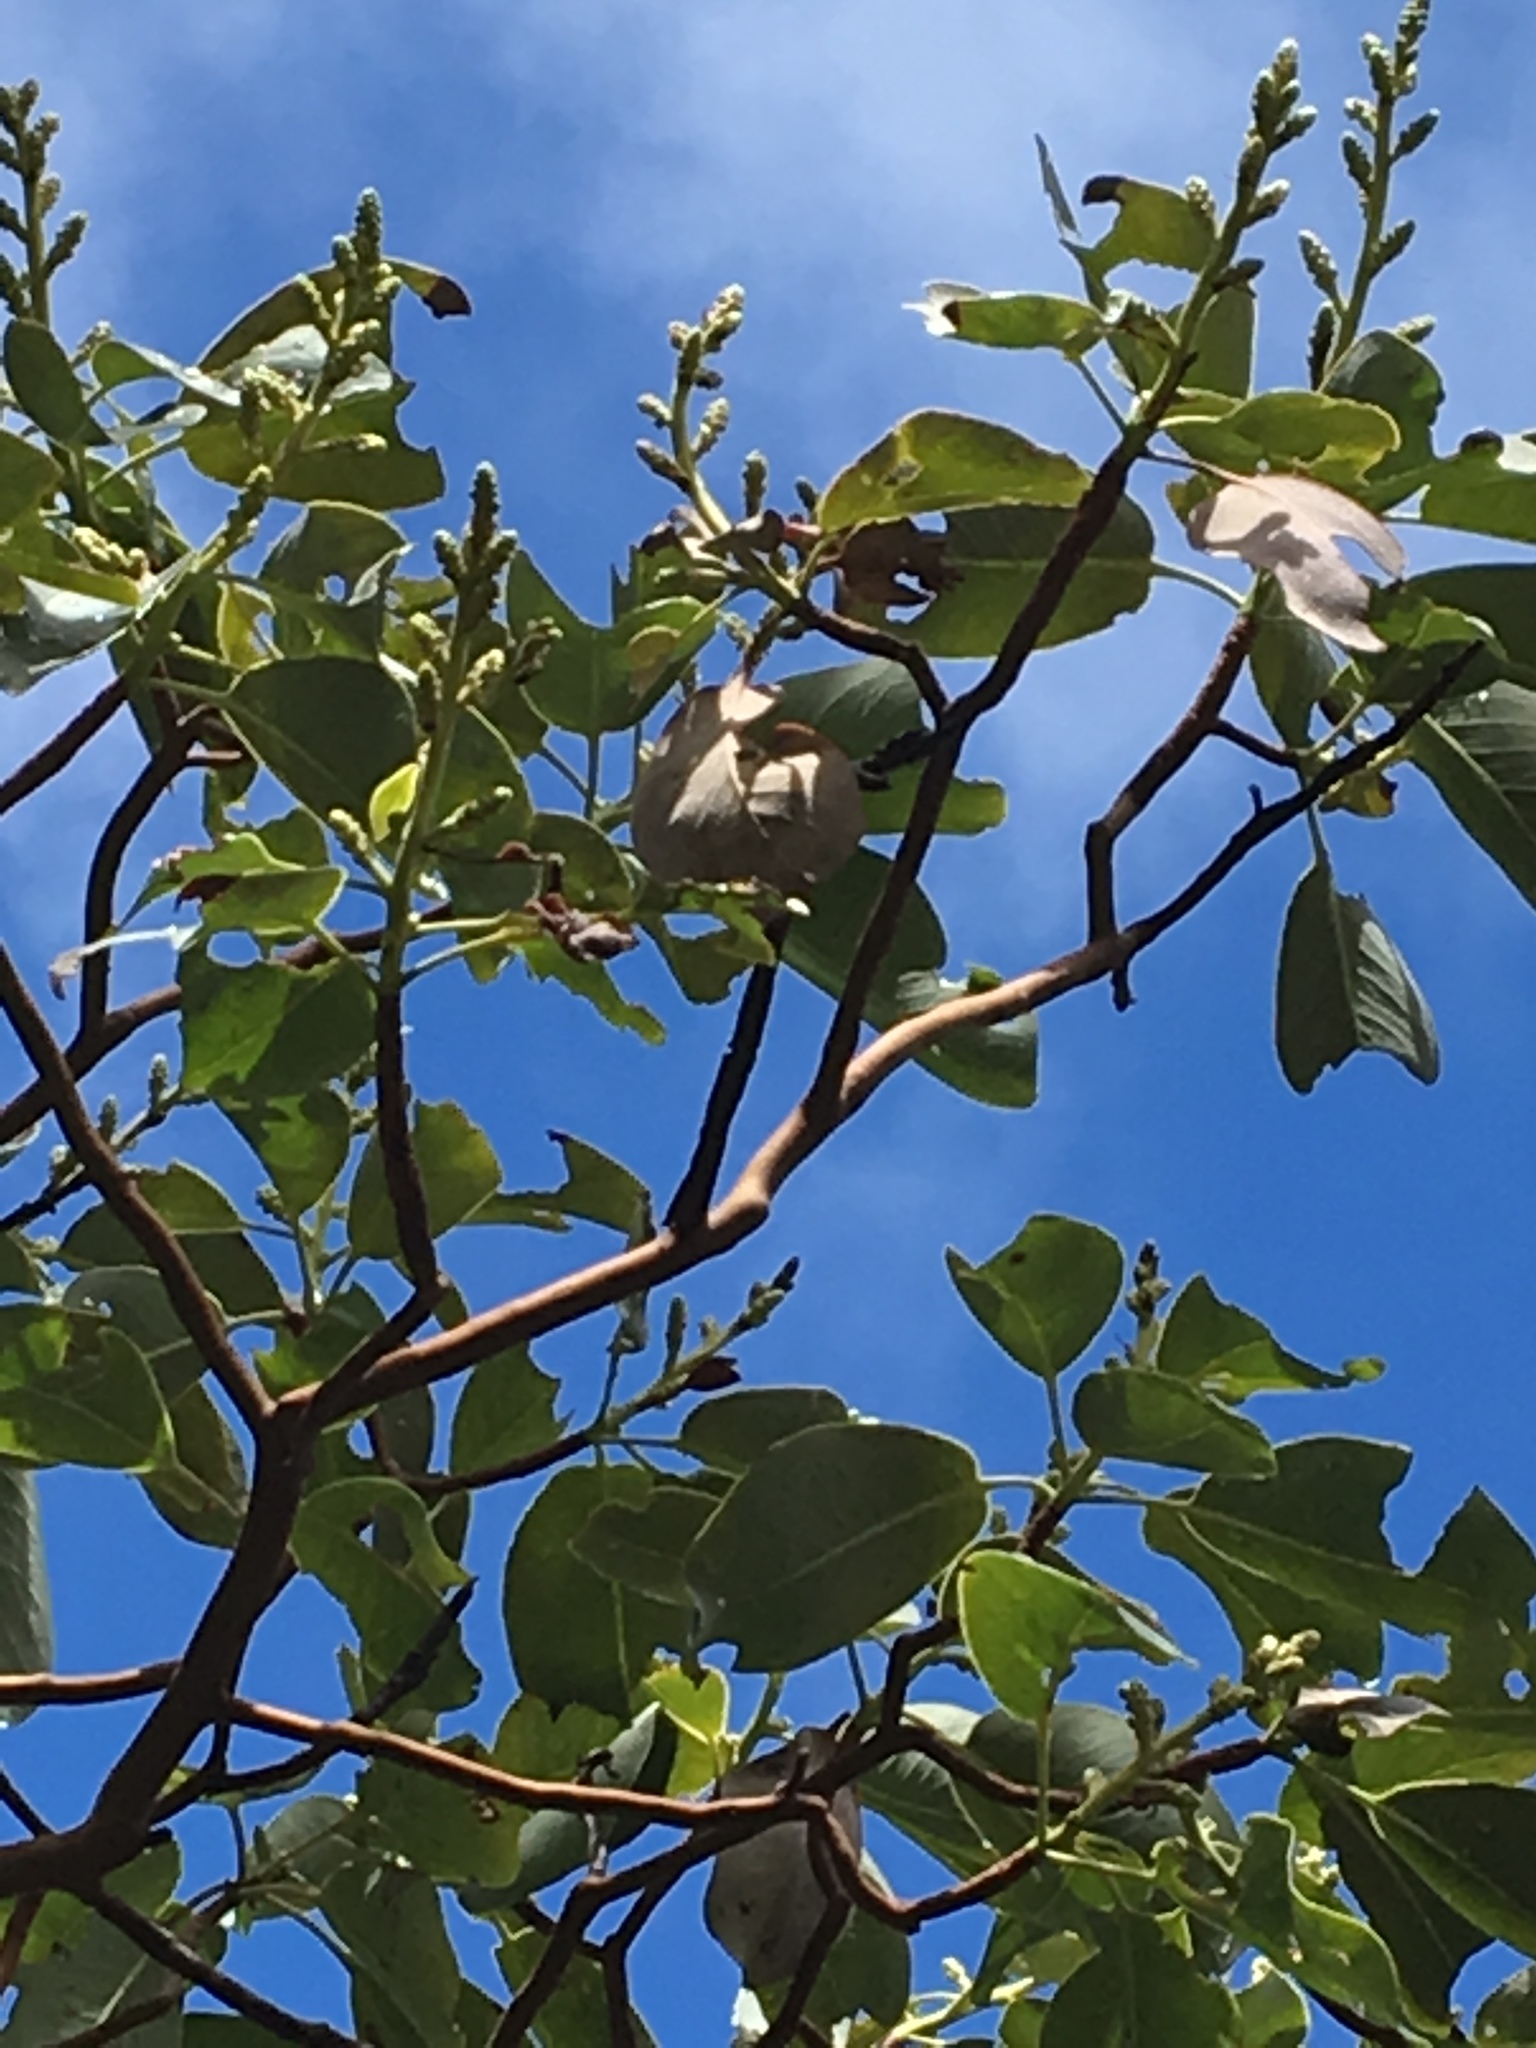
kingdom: Plantae
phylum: Tracheophyta
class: Magnoliopsida
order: Ericales
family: Ericaceae
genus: Arbutus
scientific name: Arbutus menziesii
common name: Pacific madrone
